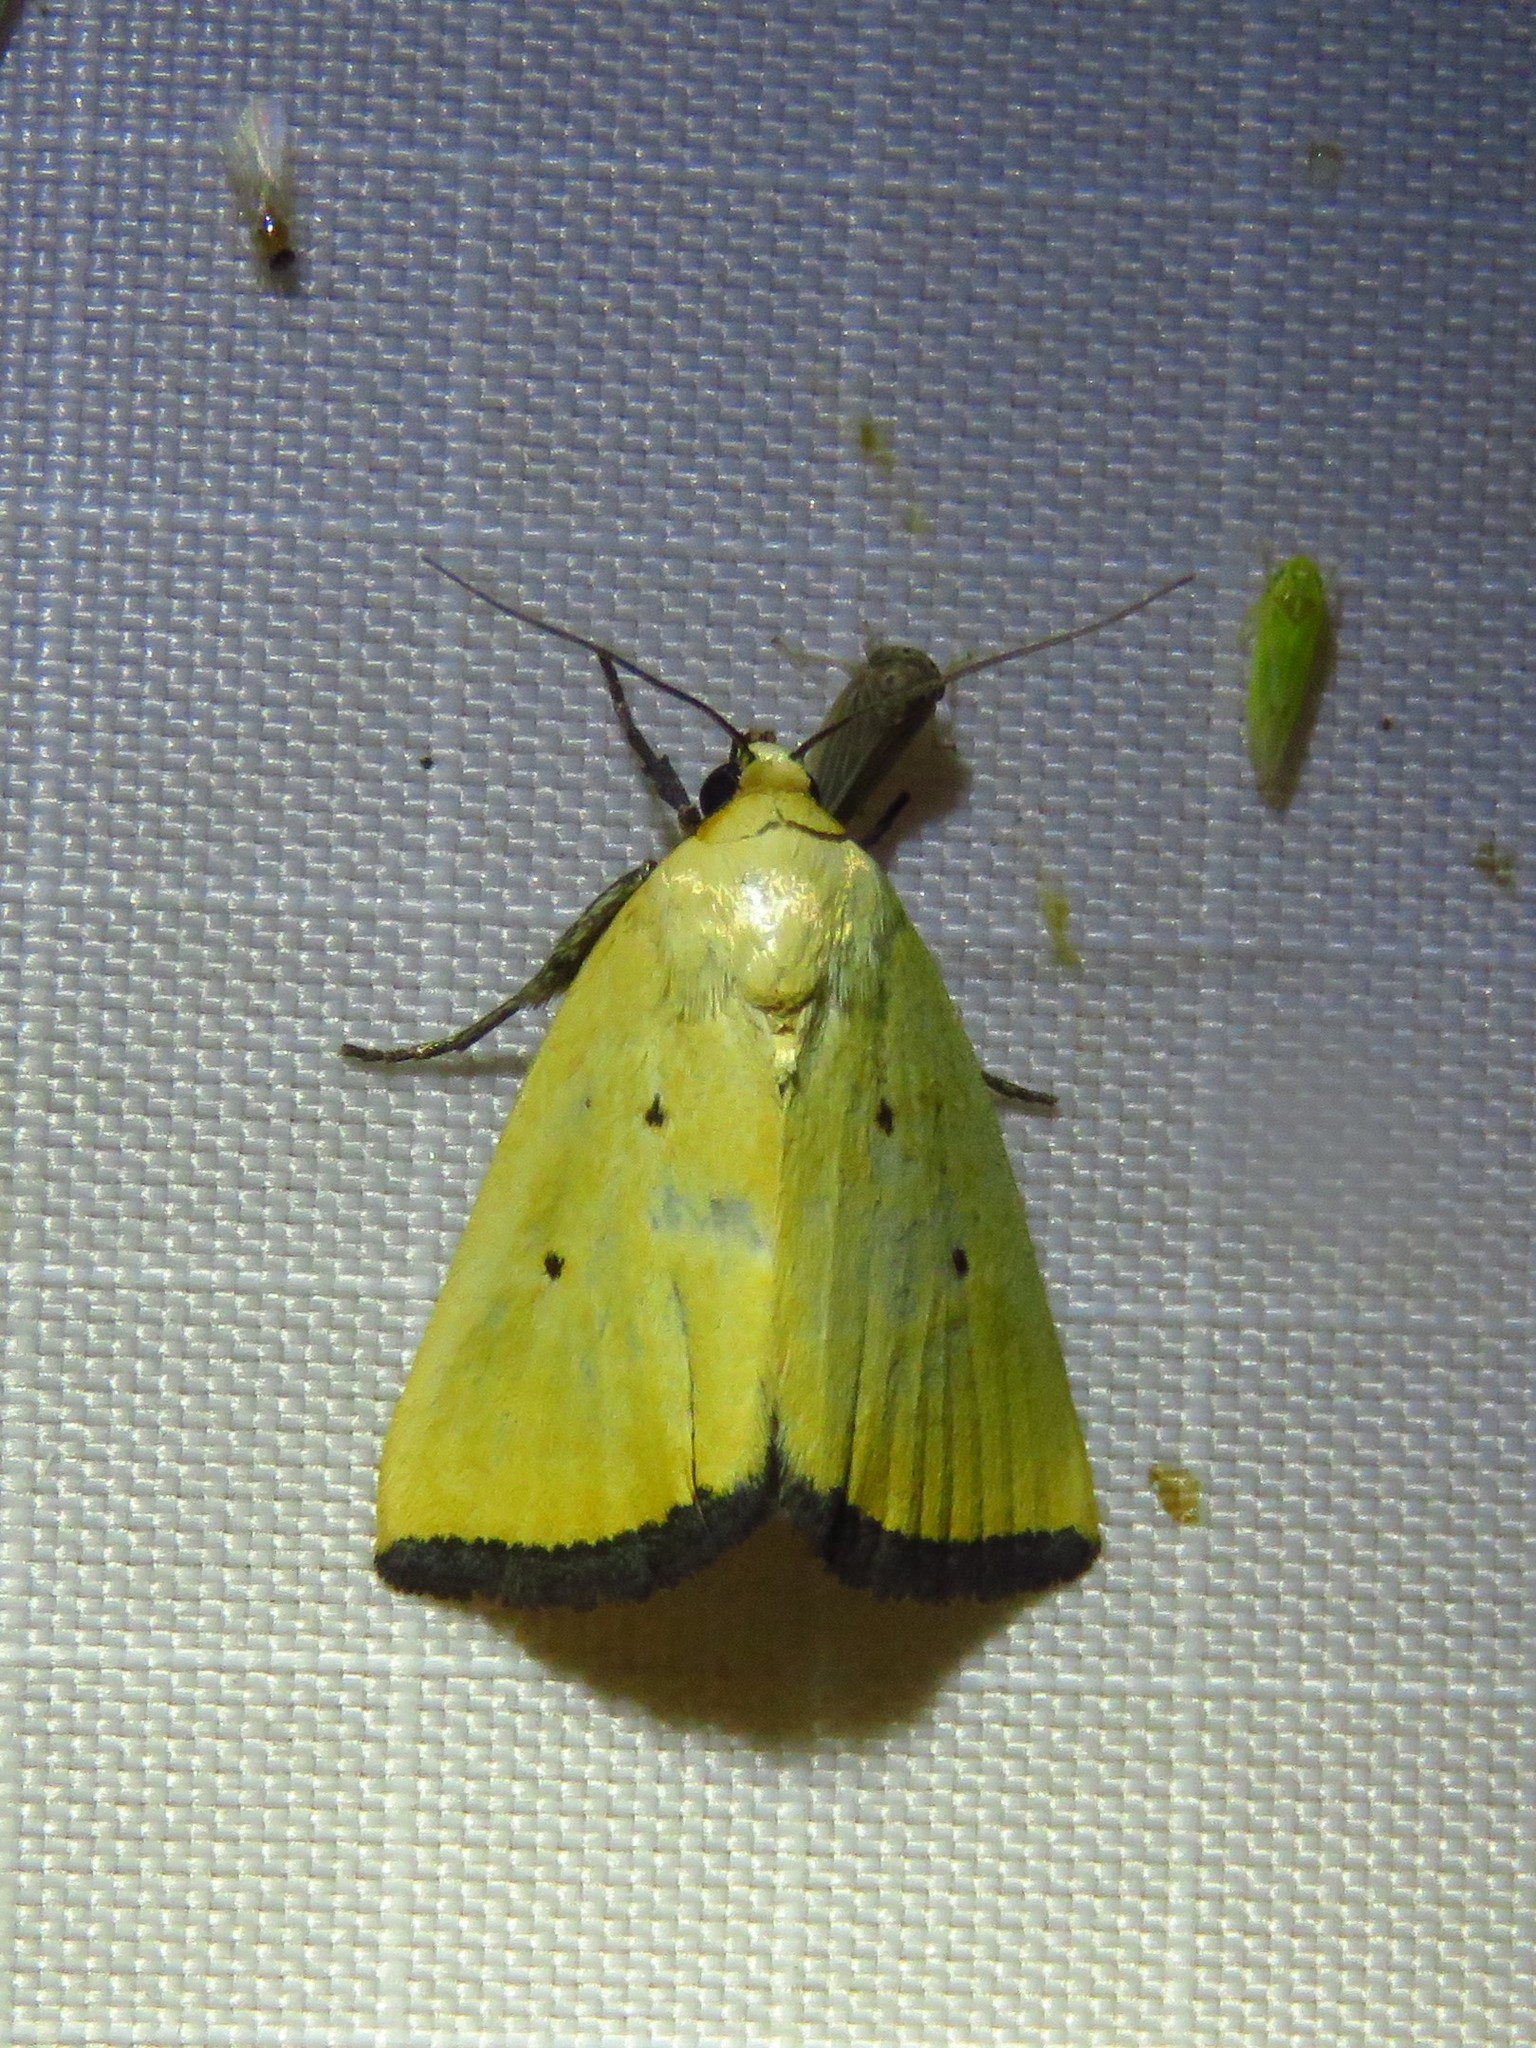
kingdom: Animalia
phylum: Arthropoda
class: Insecta
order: Lepidoptera
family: Noctuidae
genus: Marimatha
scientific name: Marimatha nigrofimbria
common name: Black-bordered lemon moth
